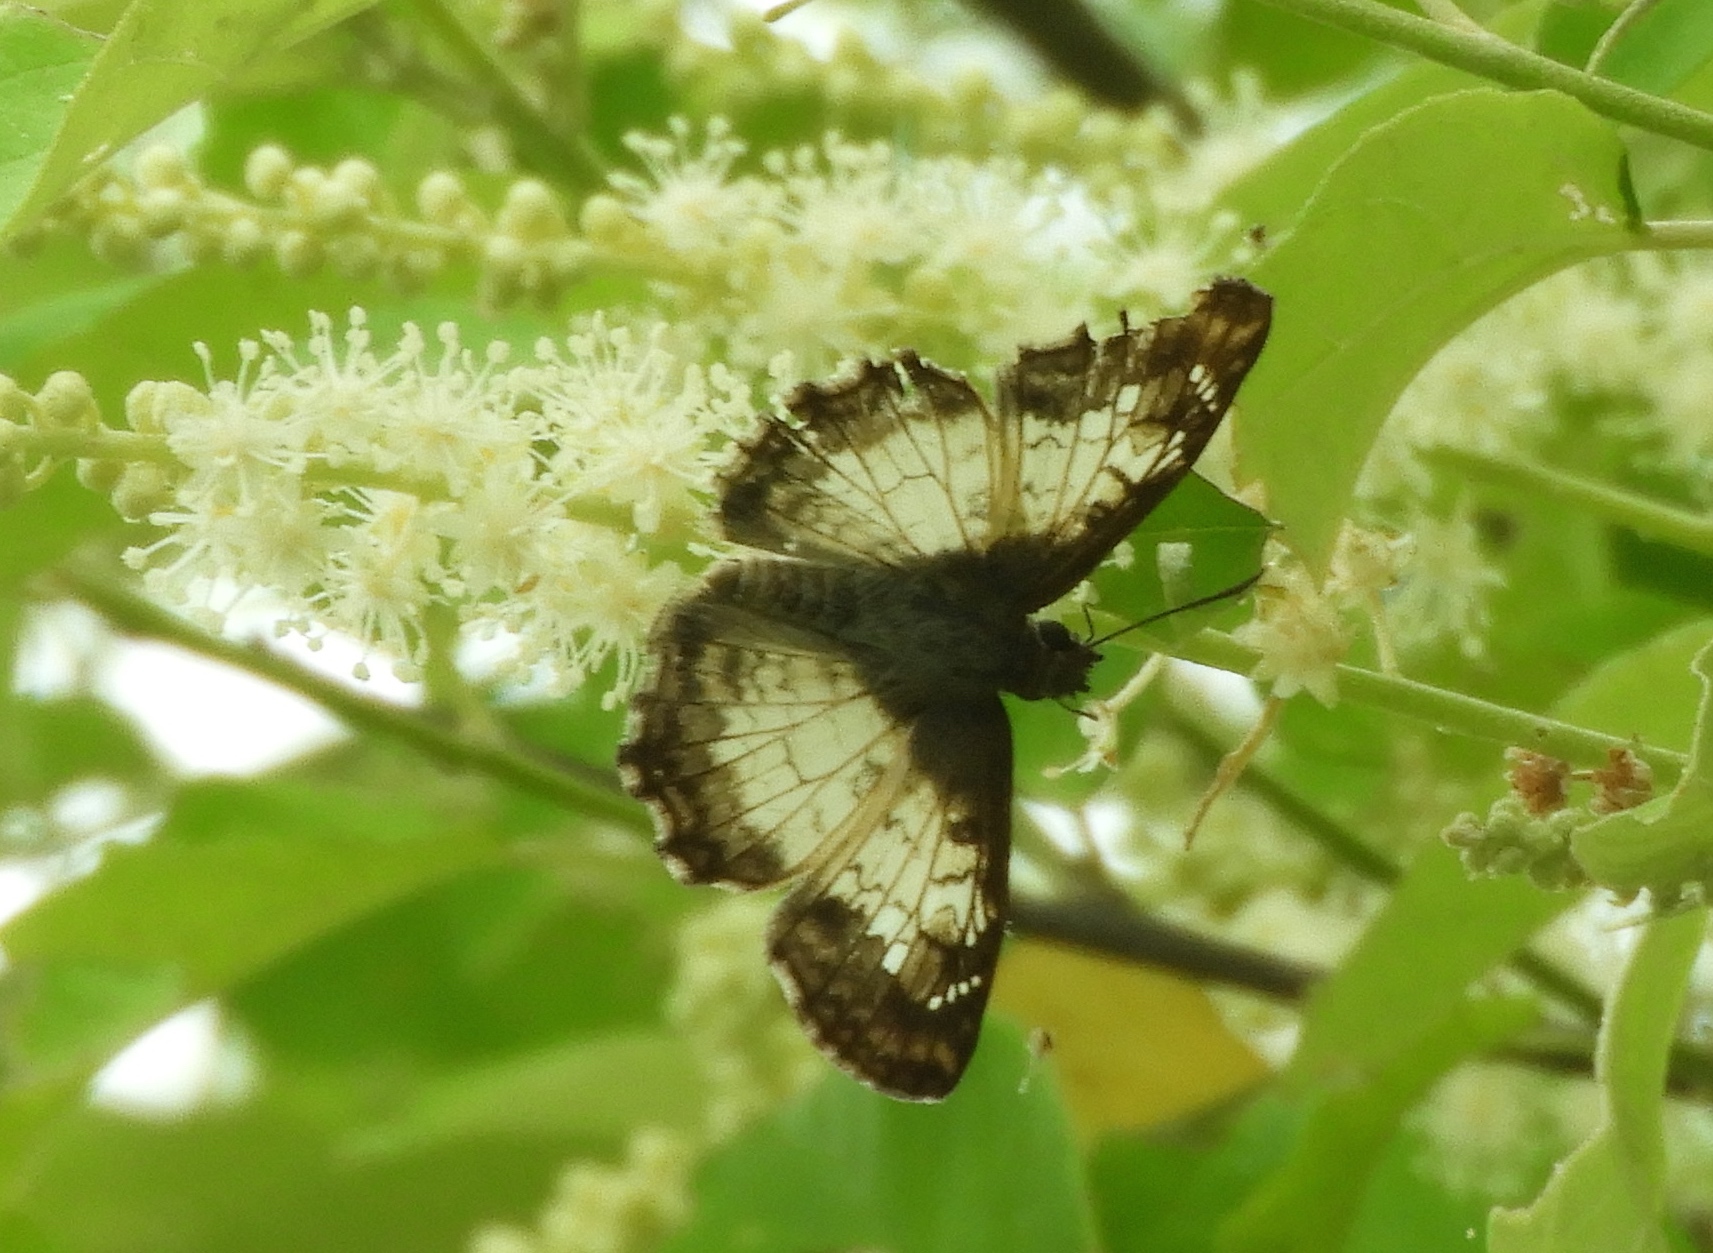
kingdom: Animalia
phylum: Arthropoda
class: Insecta
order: Lepidoptera
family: Hesperiidae
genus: Antigonus
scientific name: Antigonus emorsa
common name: White spurwing
